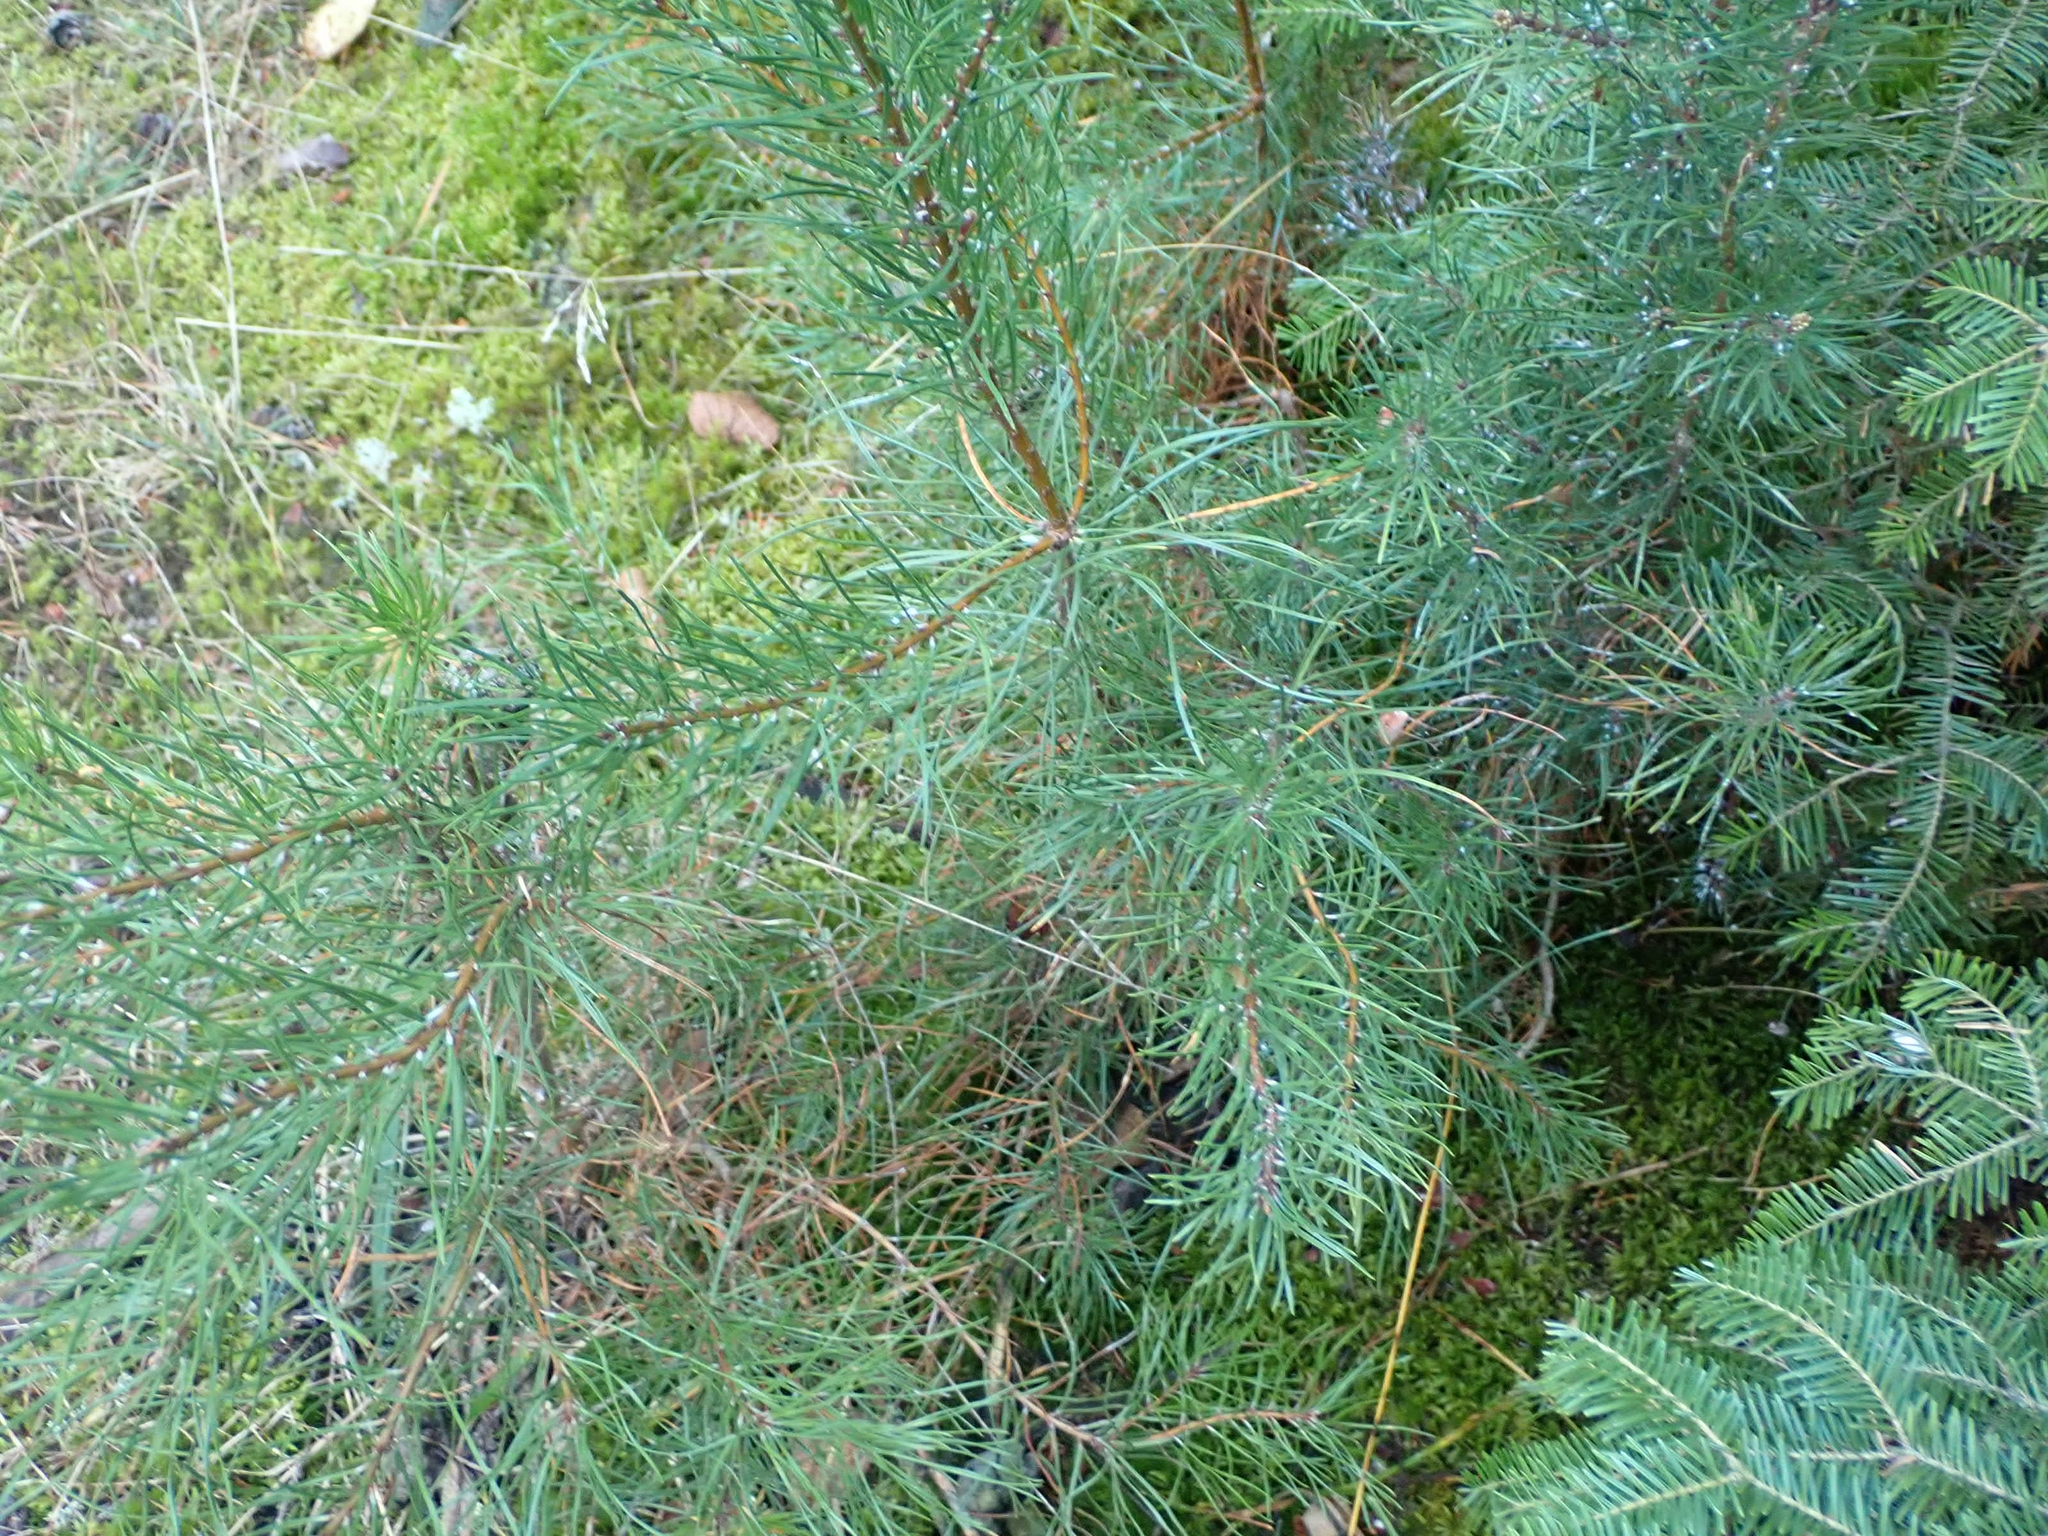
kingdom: Plantae
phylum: Tracheophyta
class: Pinopsida
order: Pinales
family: Pinaceae
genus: Pinus
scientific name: Pinus banksiana
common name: Jack pine
